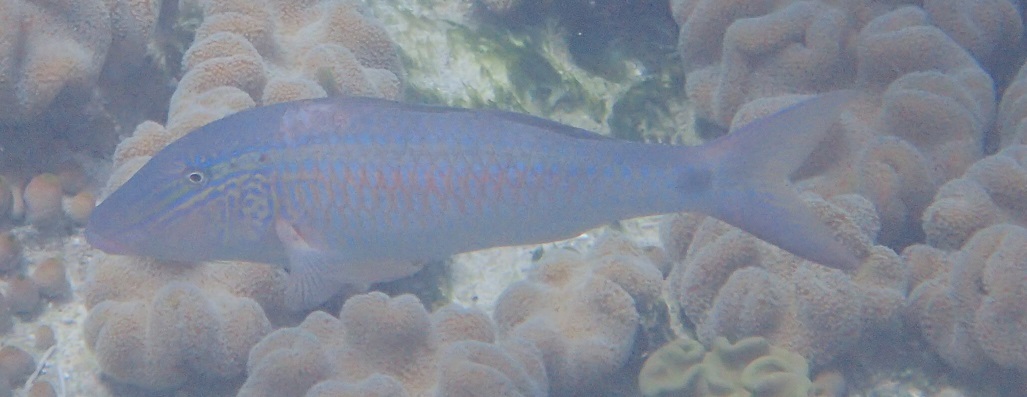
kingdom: Animalia
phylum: Chordata
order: Perciformes
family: Mullidae
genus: Parupeneus
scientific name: Parupeneus barberinus
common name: Dash-and-dot goatfish
